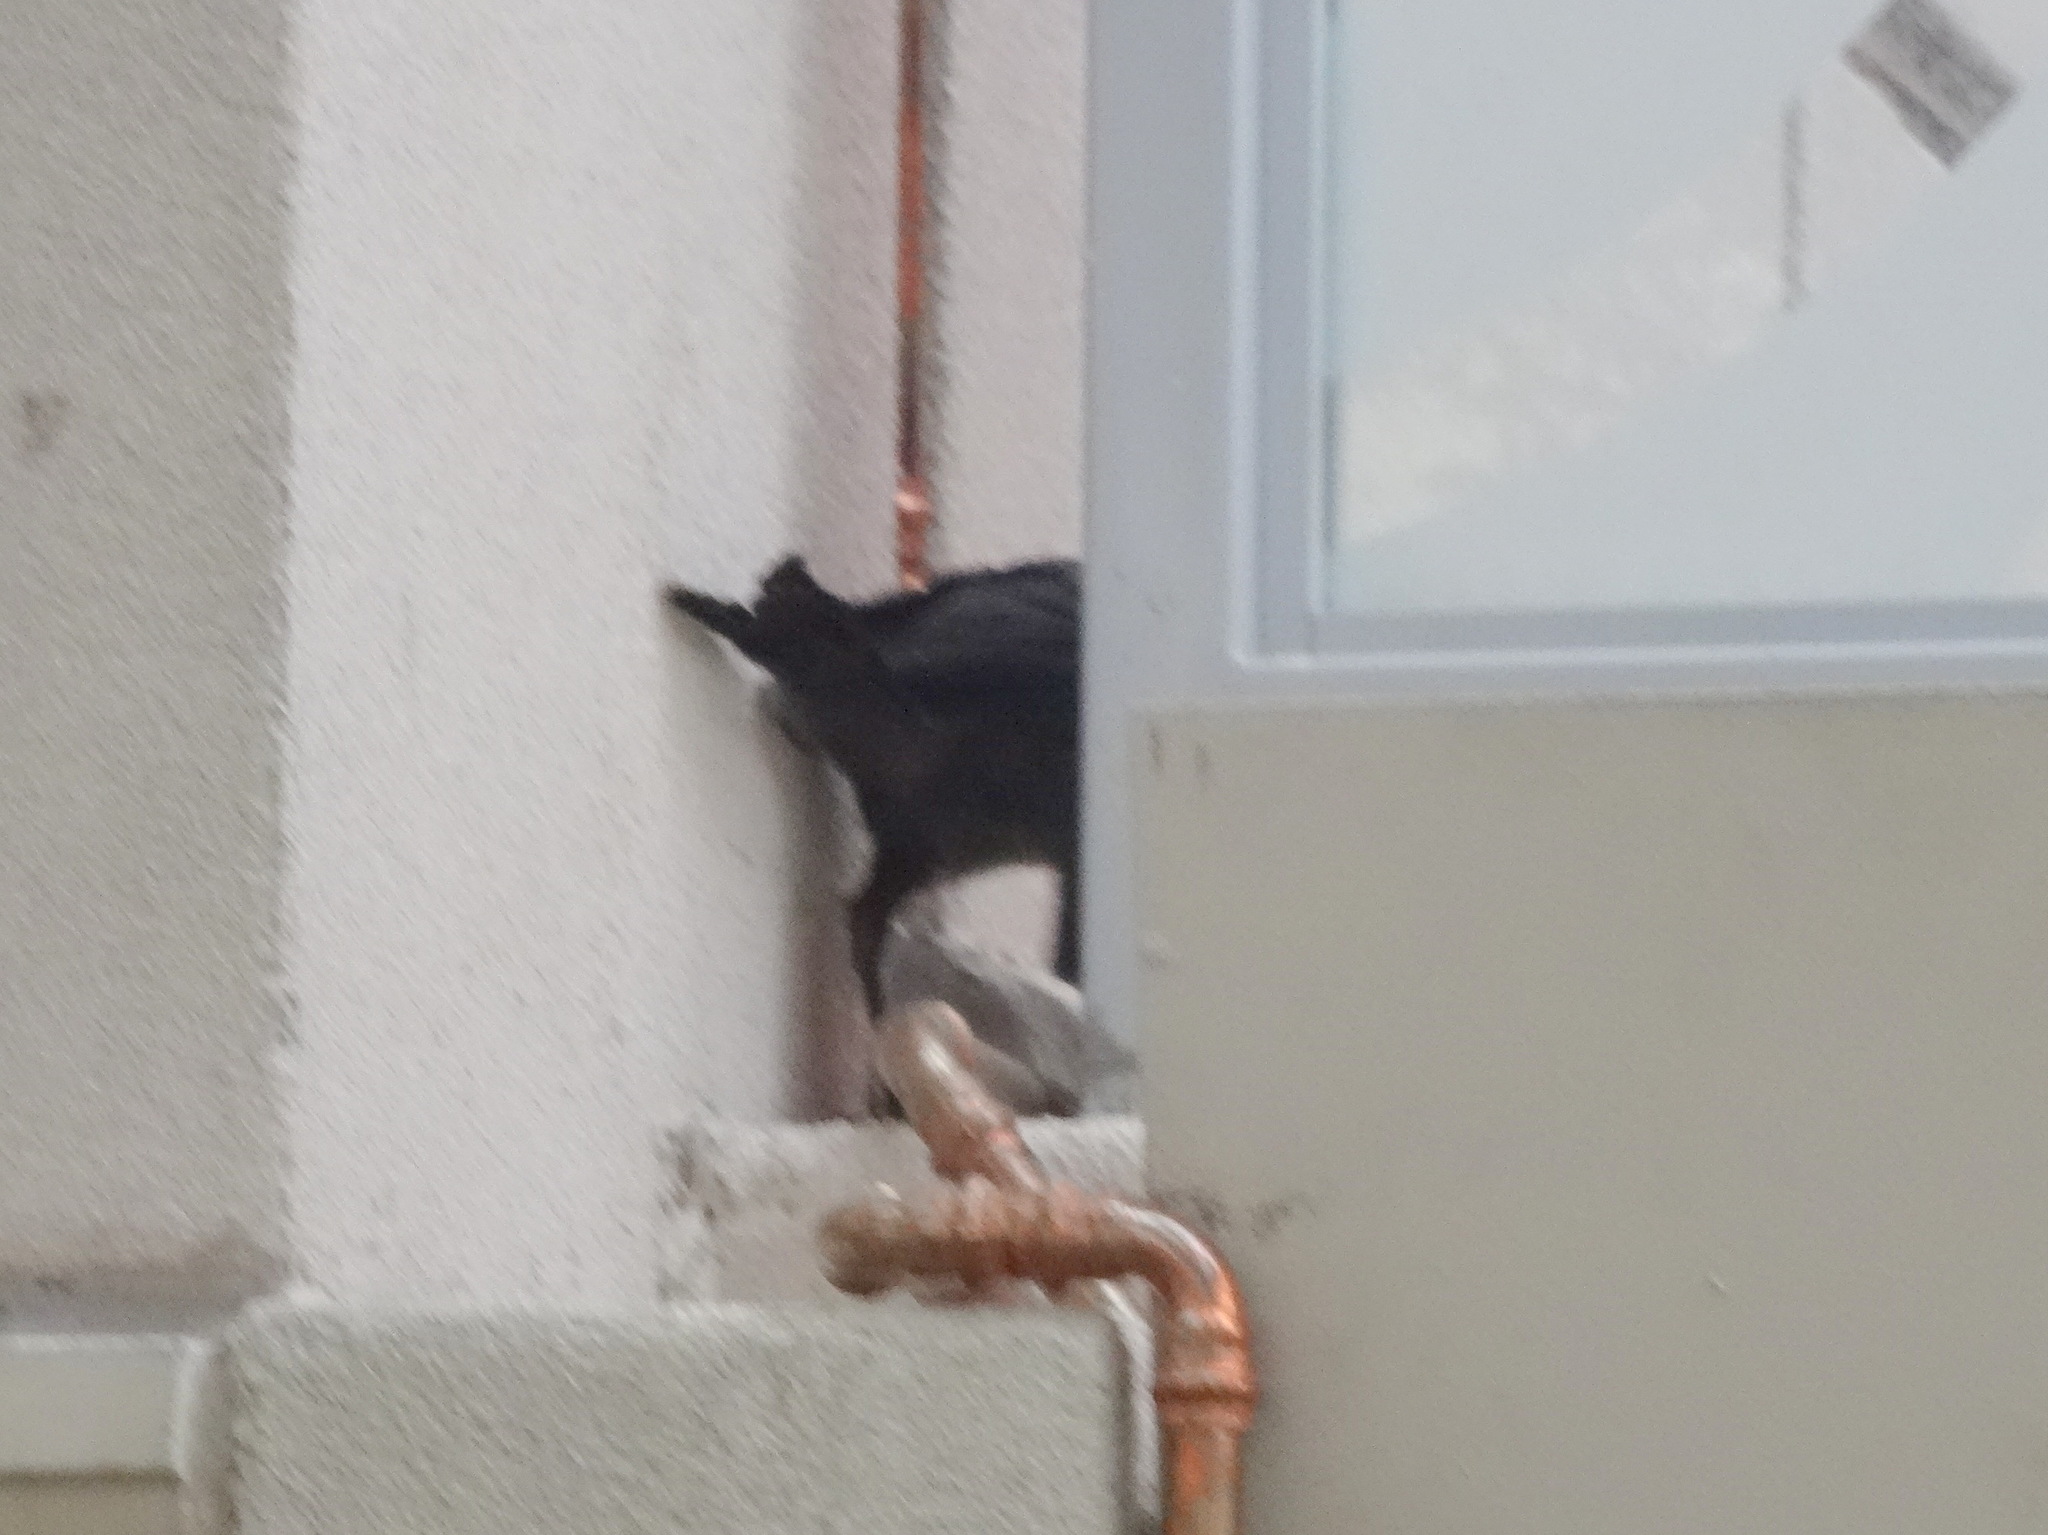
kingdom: Animalia
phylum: Chordata
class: Aves
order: Passeriformes
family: Icteridae
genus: Quiscalus
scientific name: Quiscalus mexicanus
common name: Great-tailed grackle
